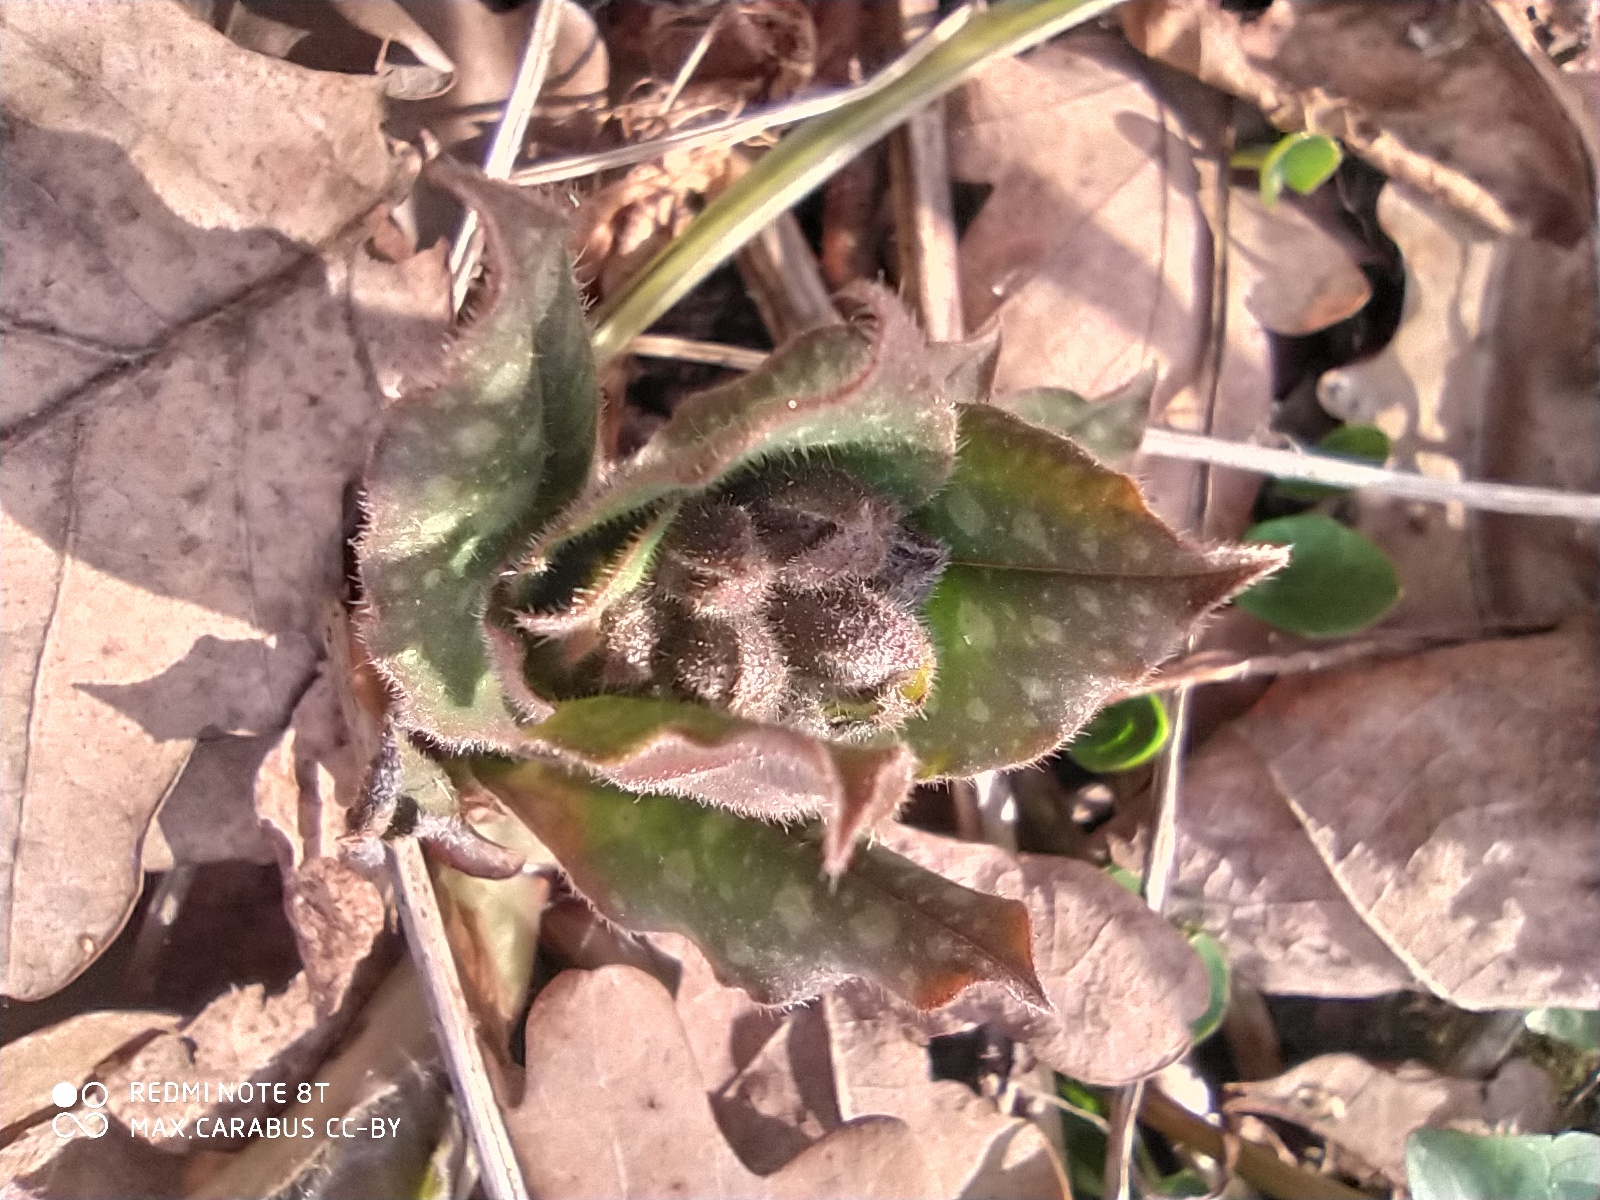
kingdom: Plantae
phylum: Tracheophyta
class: Magnoliopsida
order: Boraginales
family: Boraginaceae
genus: Pulmonaria
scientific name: Pulmonaria obscura
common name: Suffolk lungwort
